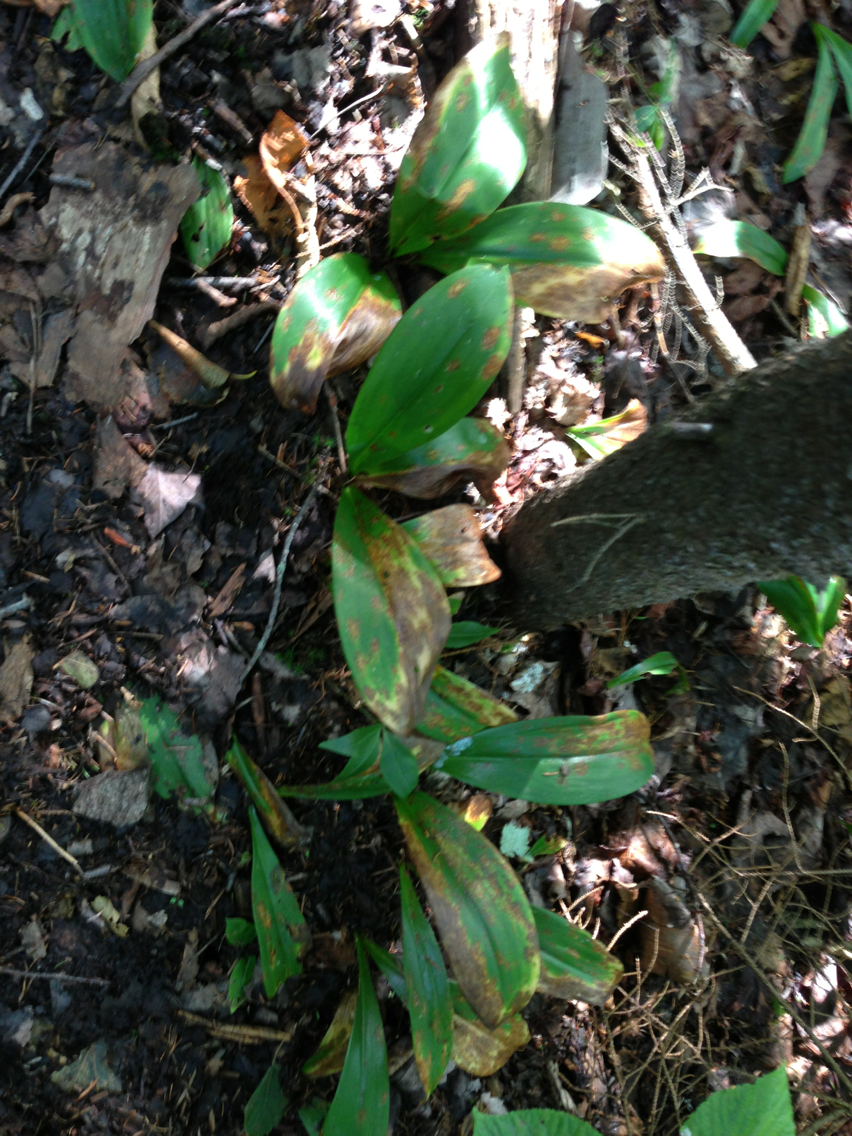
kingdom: Plantae
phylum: Tracheophyta
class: Liliopsida
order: Liliales
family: Liliaceae
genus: Clintonia
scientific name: Clintonia borealis
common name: Yellow clintonia
